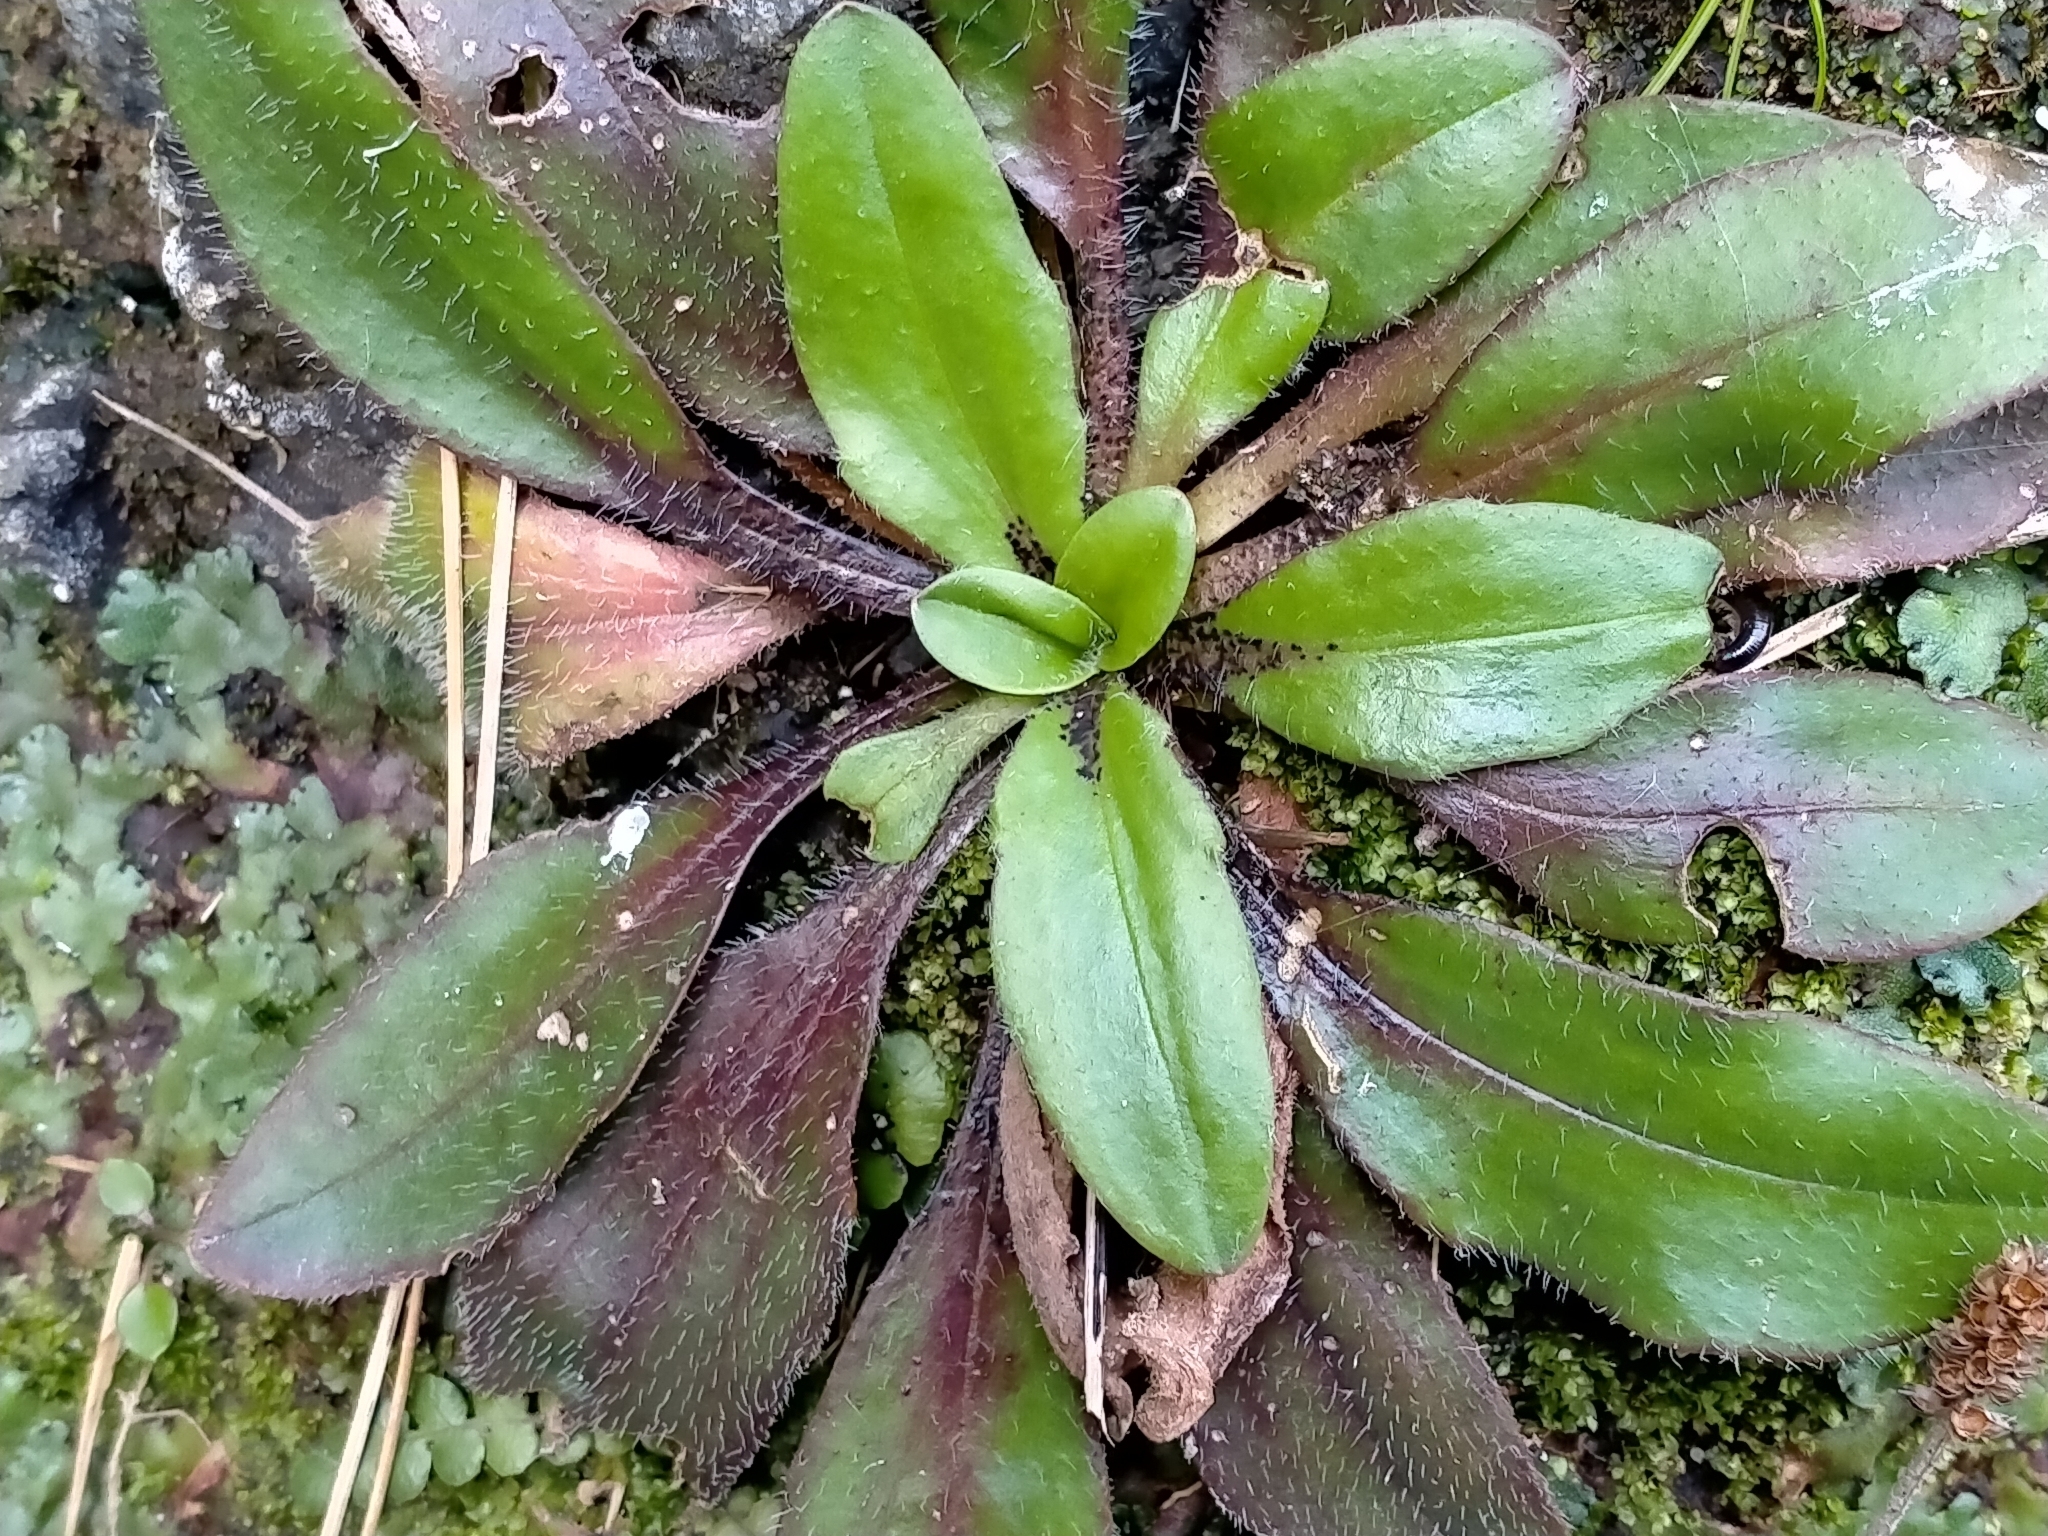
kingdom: Plantae
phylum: Tracheophyta
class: Magnoliopsida
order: Lamiales
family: Plantaginaceae
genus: Plantago
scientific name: Plantago raoulii
